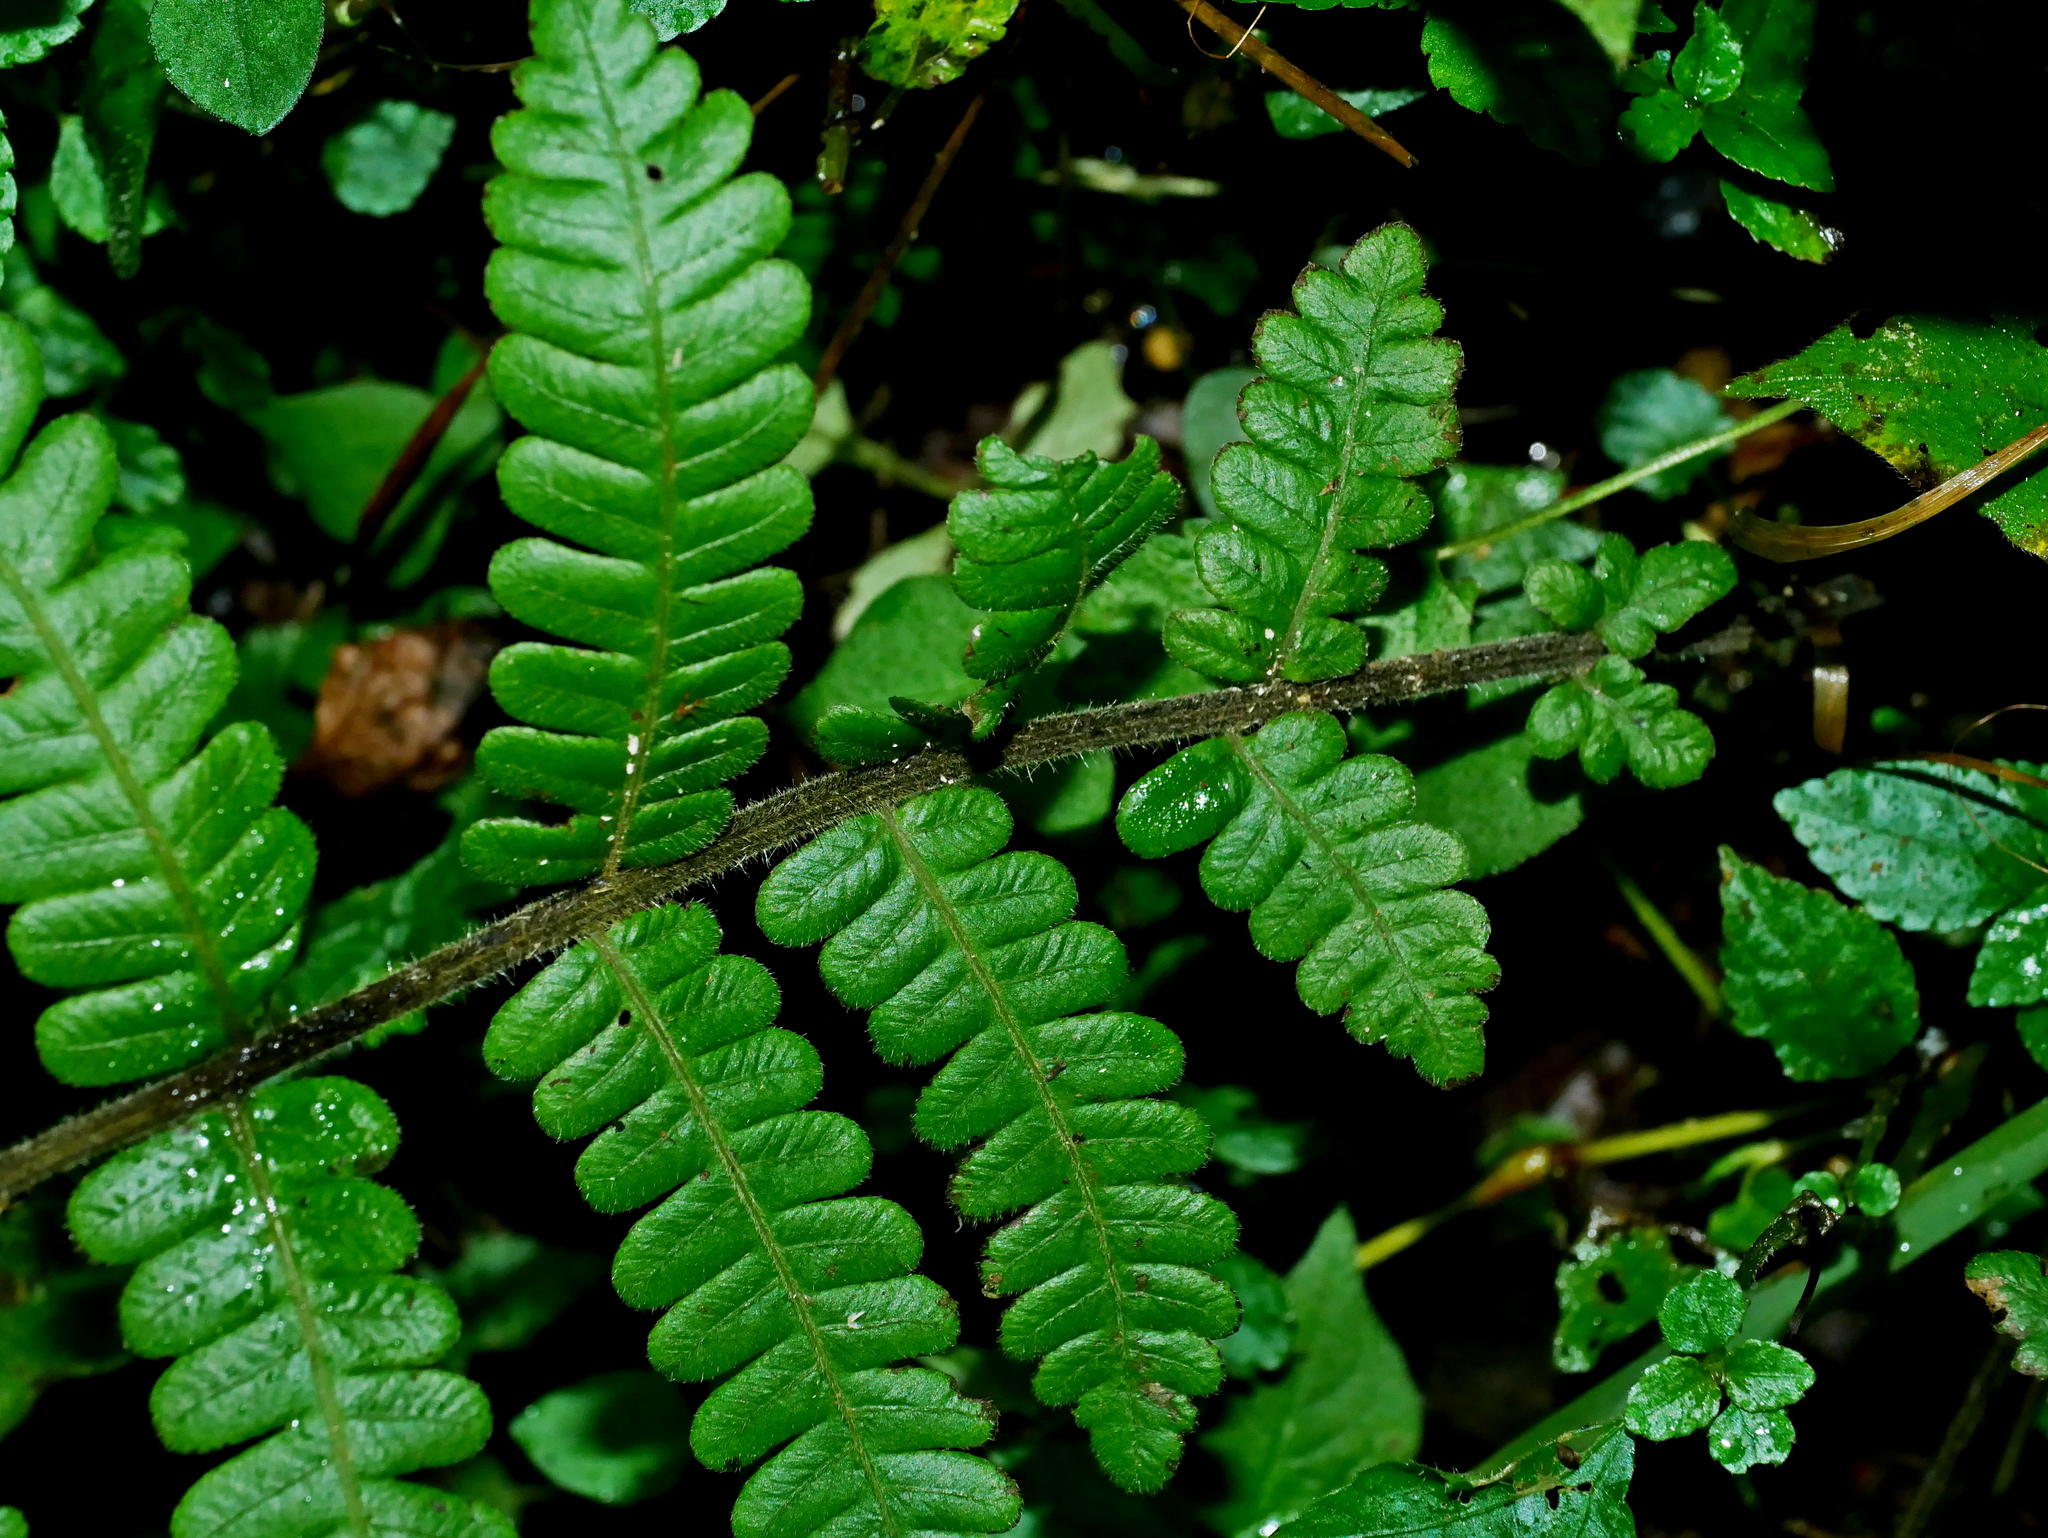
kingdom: Plantae
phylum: Tracheophyta
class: Polypodiopsida
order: Polypodiales
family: Thelypteridaceae
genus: Cyclogramma
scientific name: Cyclogramma auriculata
